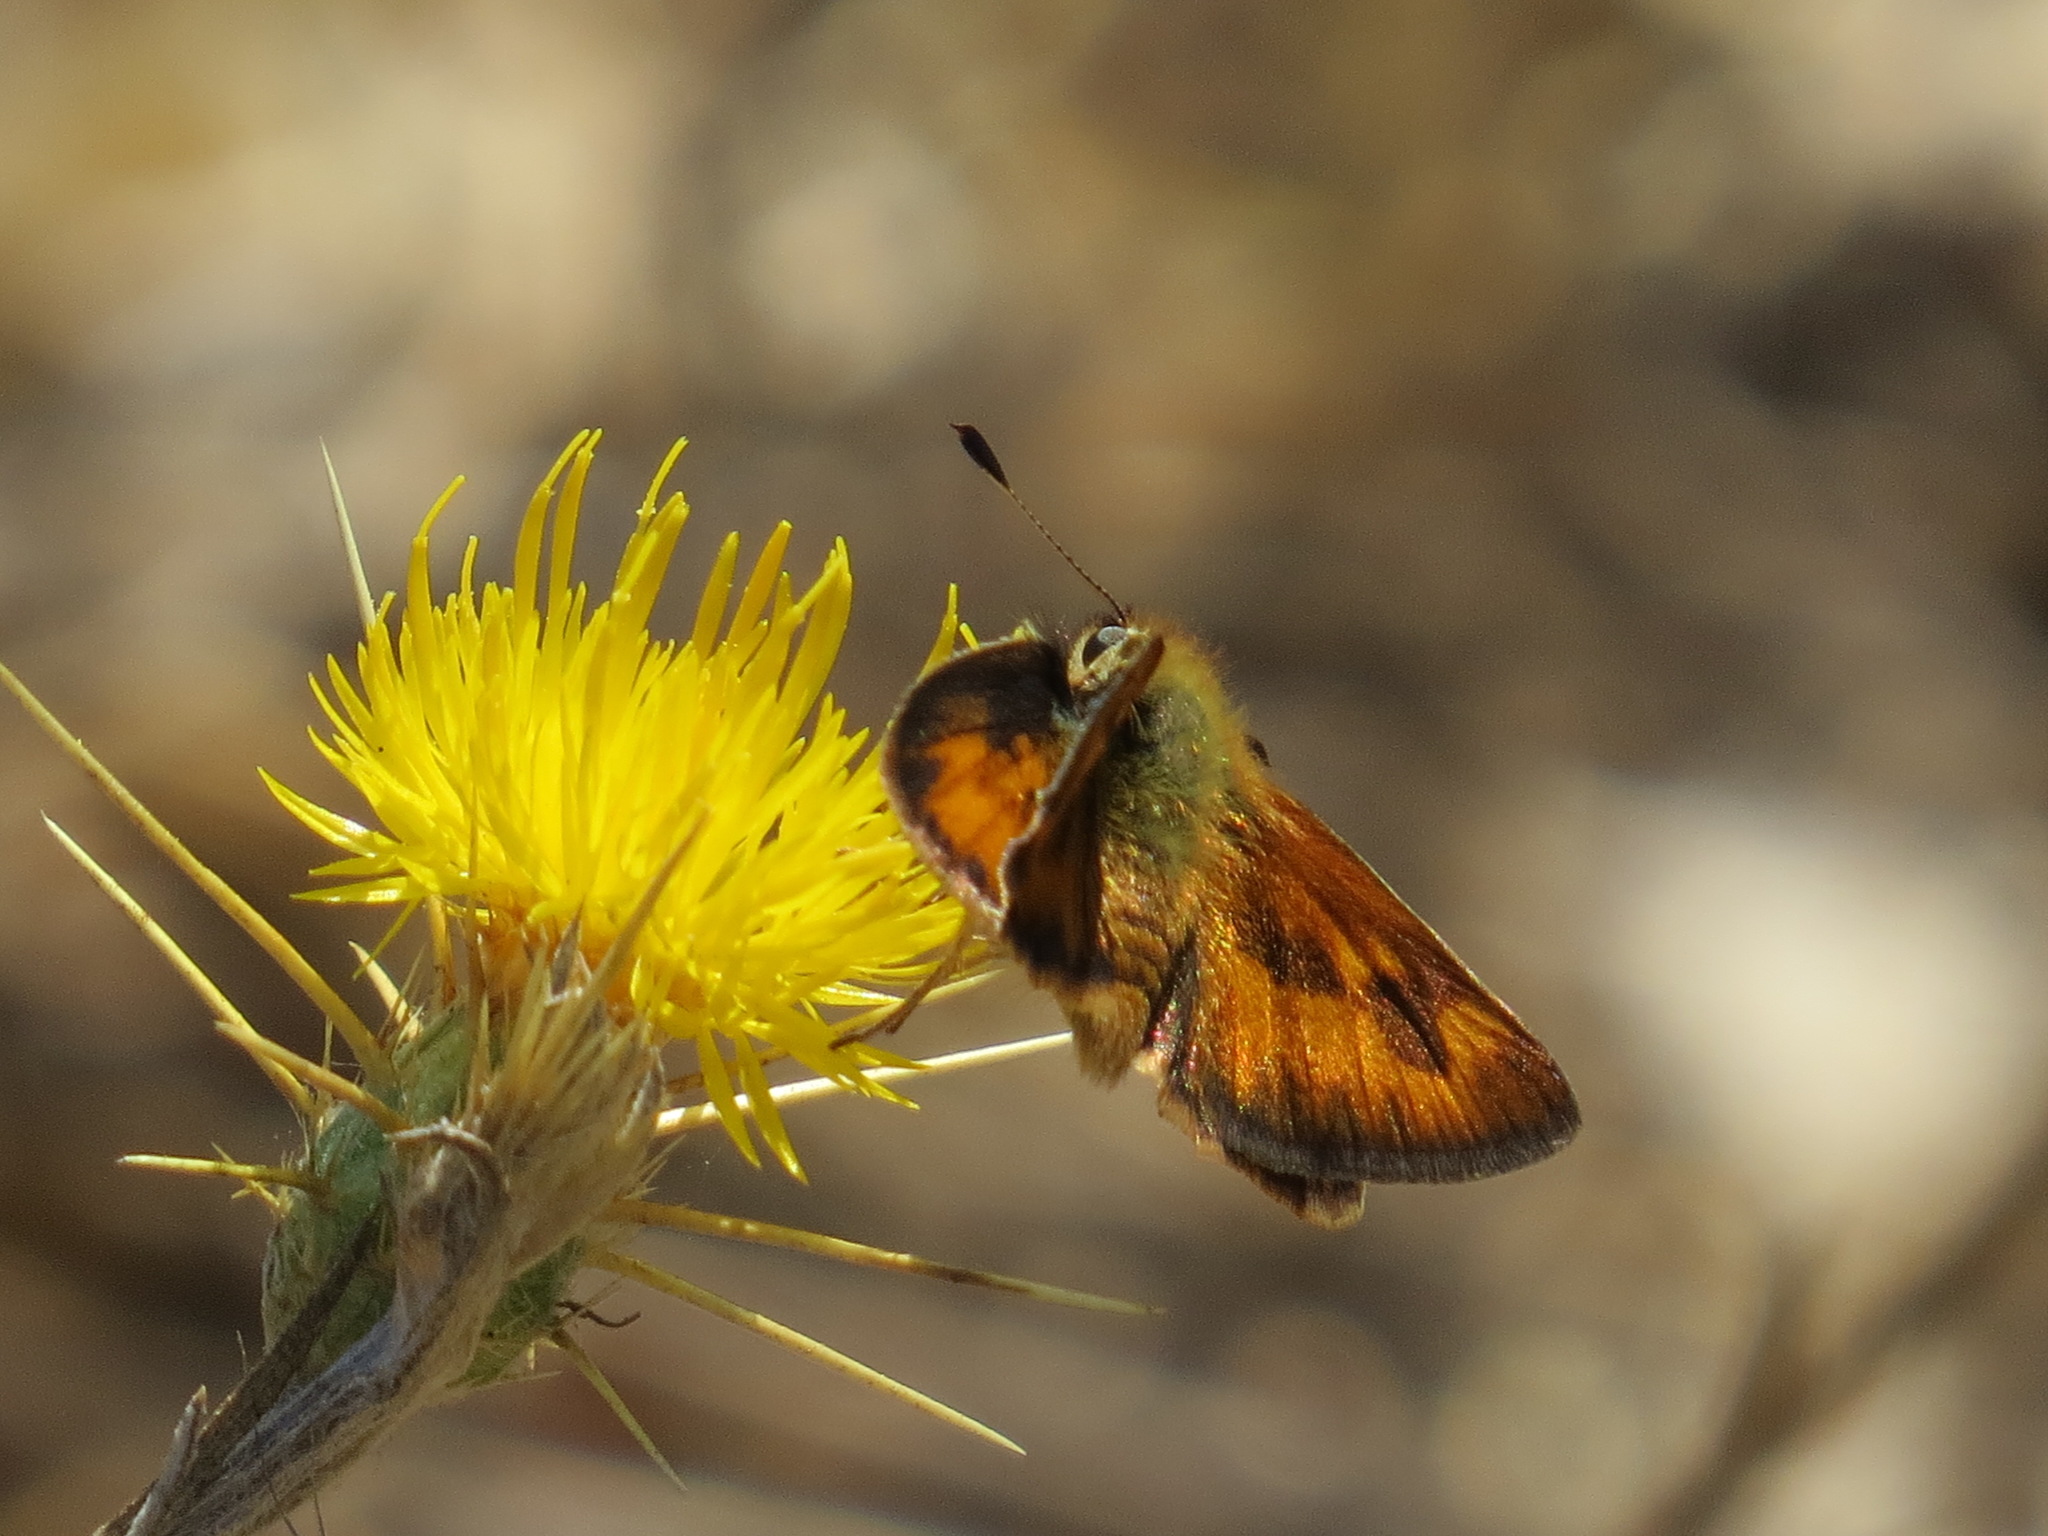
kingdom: Animalia
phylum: Arthropoda
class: Insecta
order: Lepidoptera
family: Hesperiidae
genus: Ochlodes
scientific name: Ochlodes sylvanoides
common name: Woodland skipper
